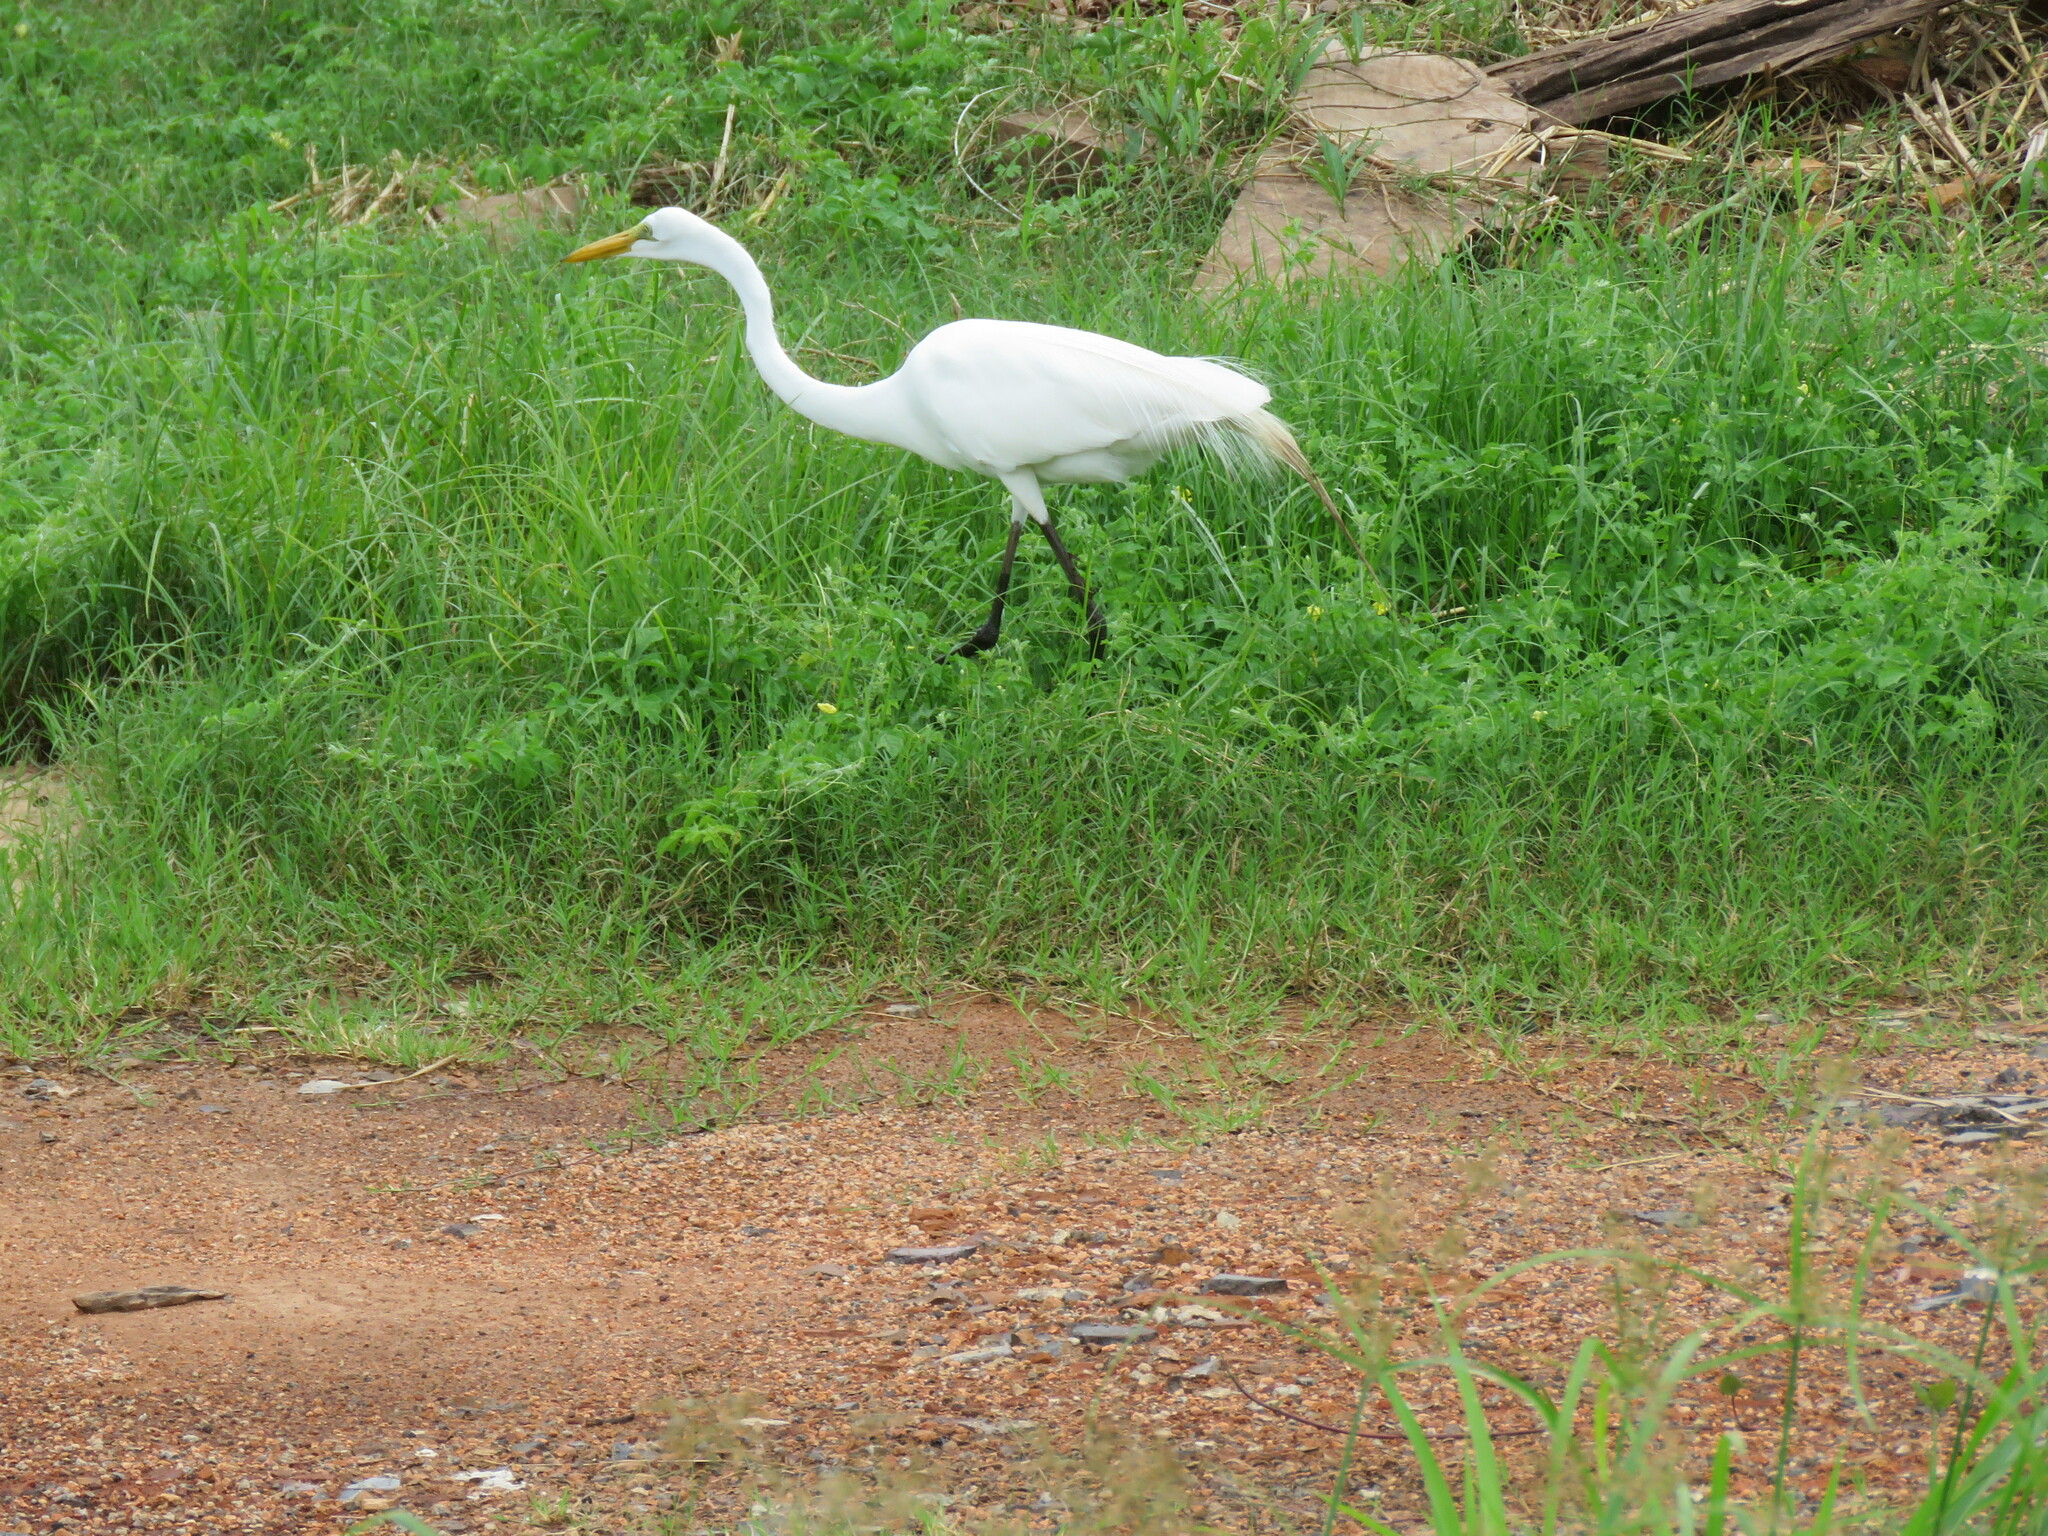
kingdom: Animalia
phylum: Chordata
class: Aves
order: Pelecaniformes
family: Ardeidae
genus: Ardea
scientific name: Ardea alba
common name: Great egret
